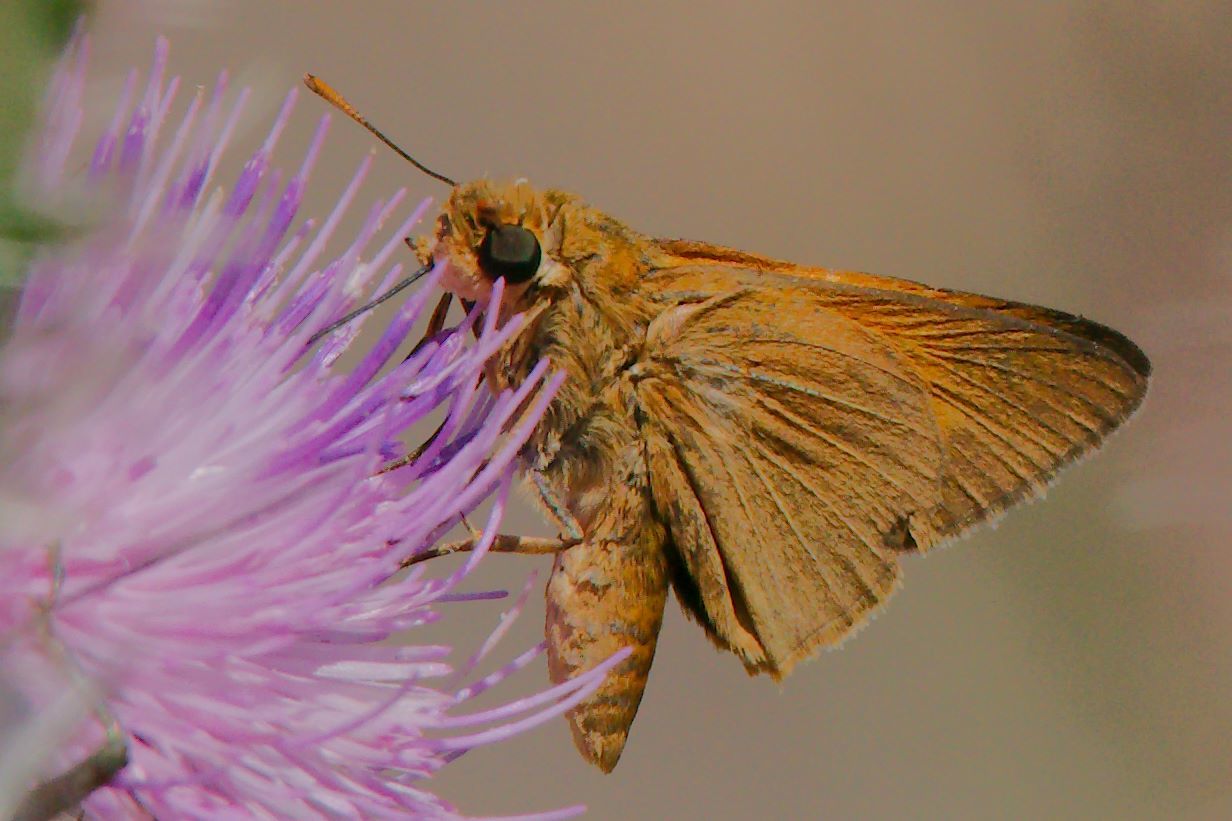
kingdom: Animalia
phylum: Arthropoda
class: Insecta
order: Lepidoptera
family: Hesperiidae
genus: Euphyes
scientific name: Euphyes pilatka
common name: Palatka skipper
